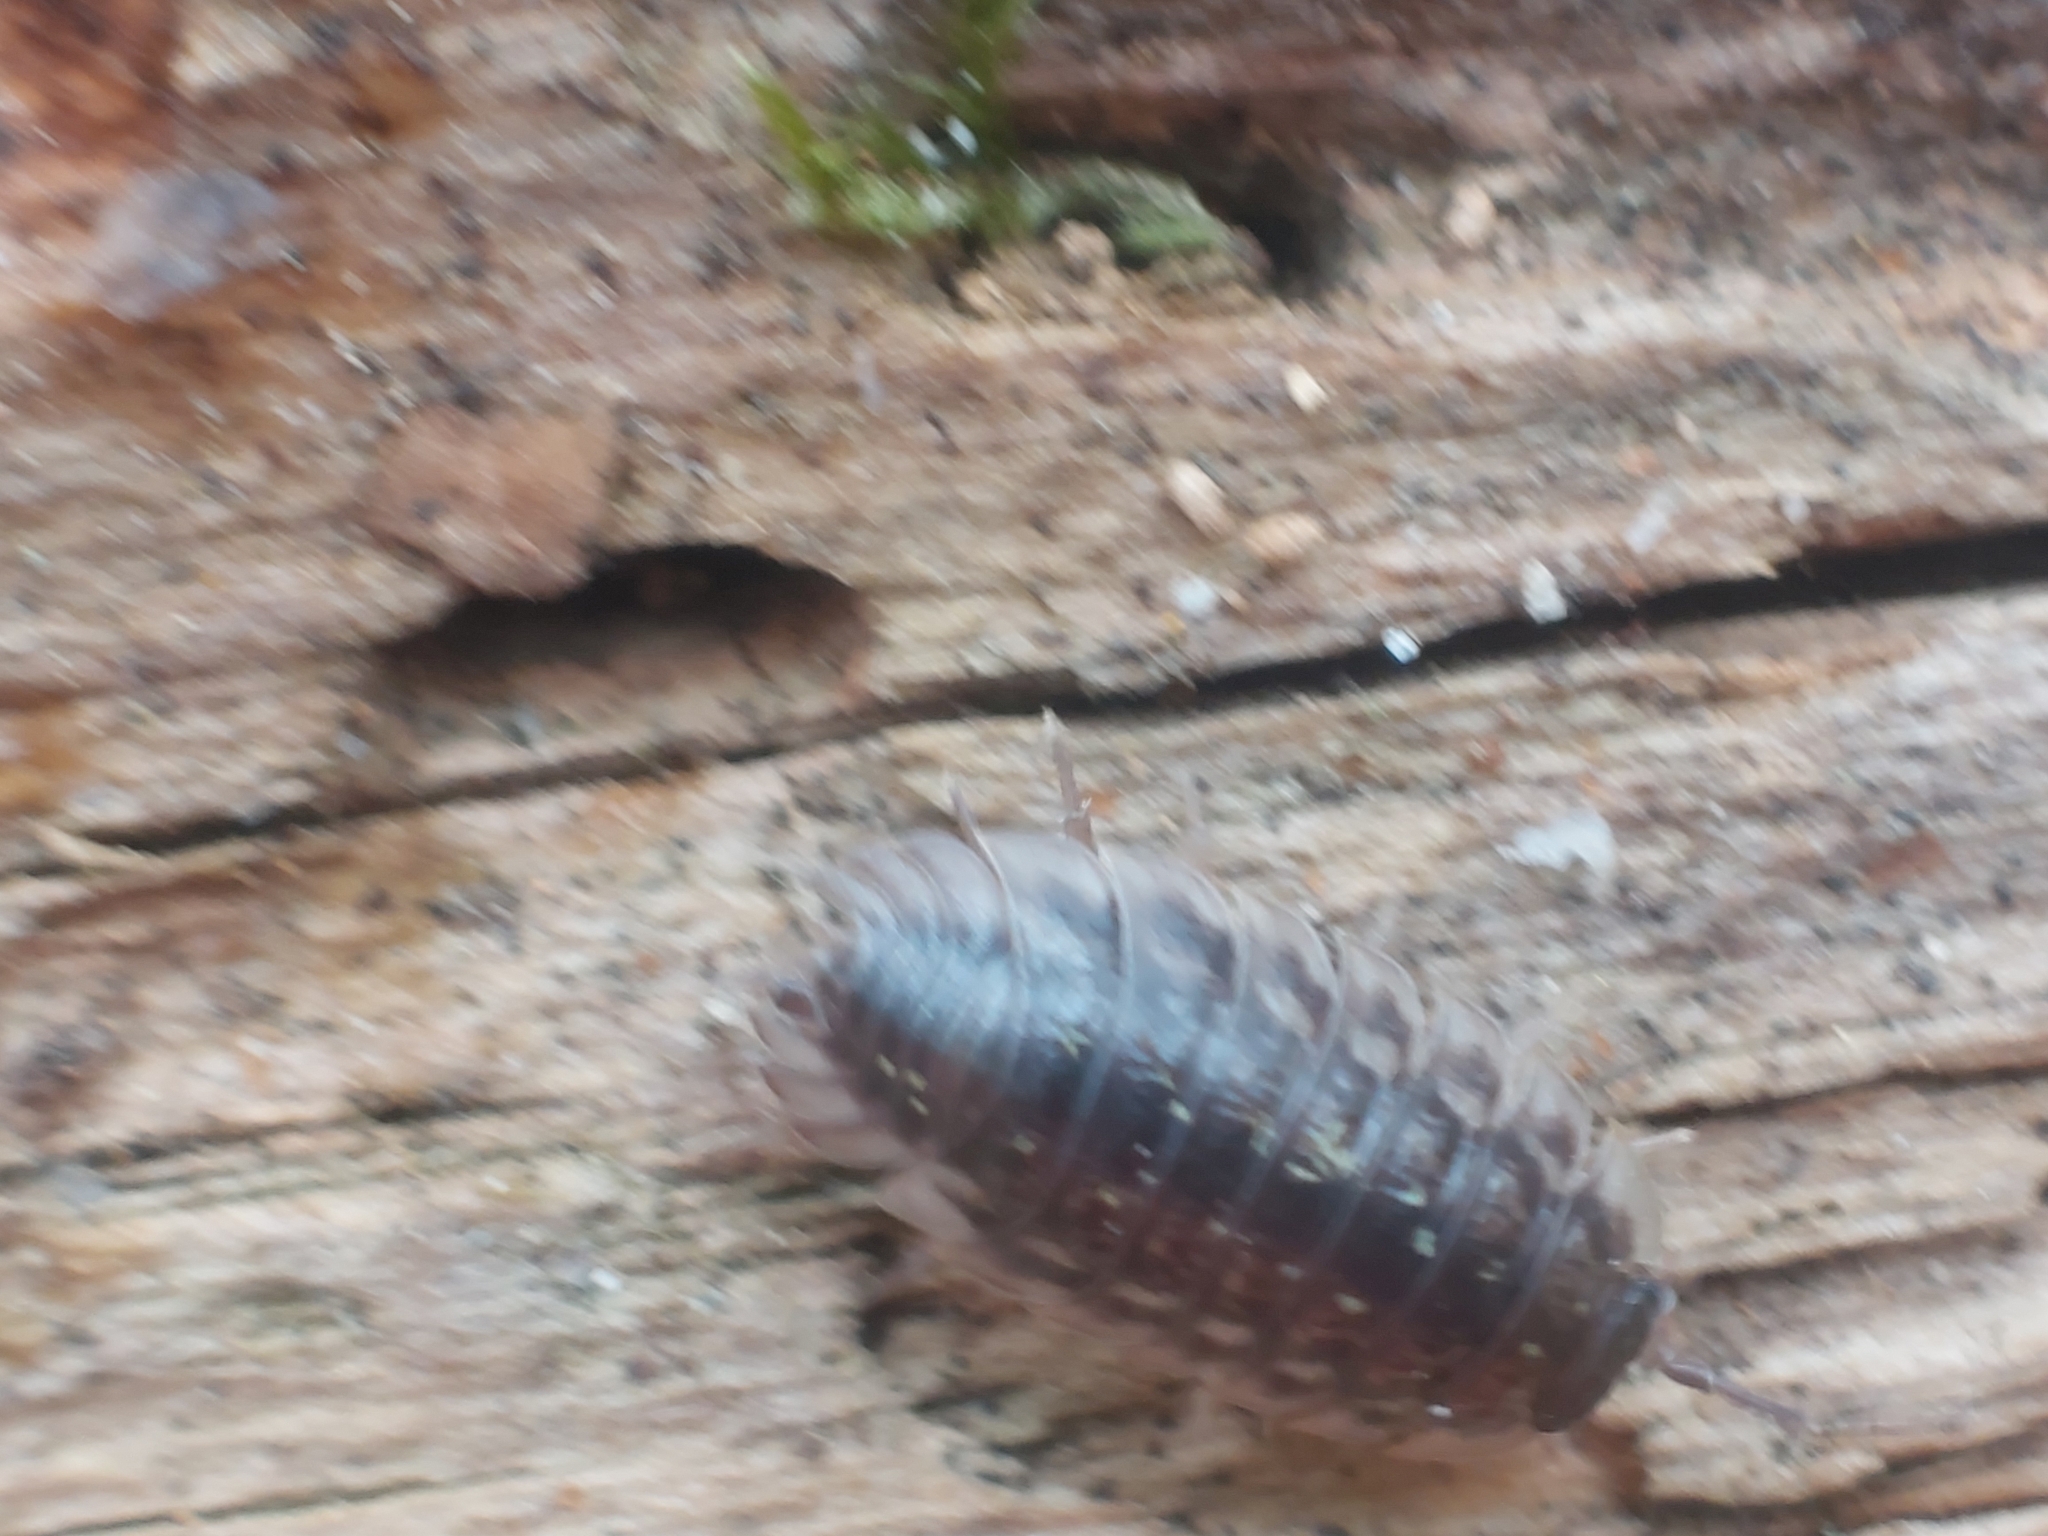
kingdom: Animalia
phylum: Arthropoda
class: Malacostraca
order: Isopoda
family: Oniscidae
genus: Oniscus
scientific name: Oniscus asellus
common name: Common shiny woodlouse
